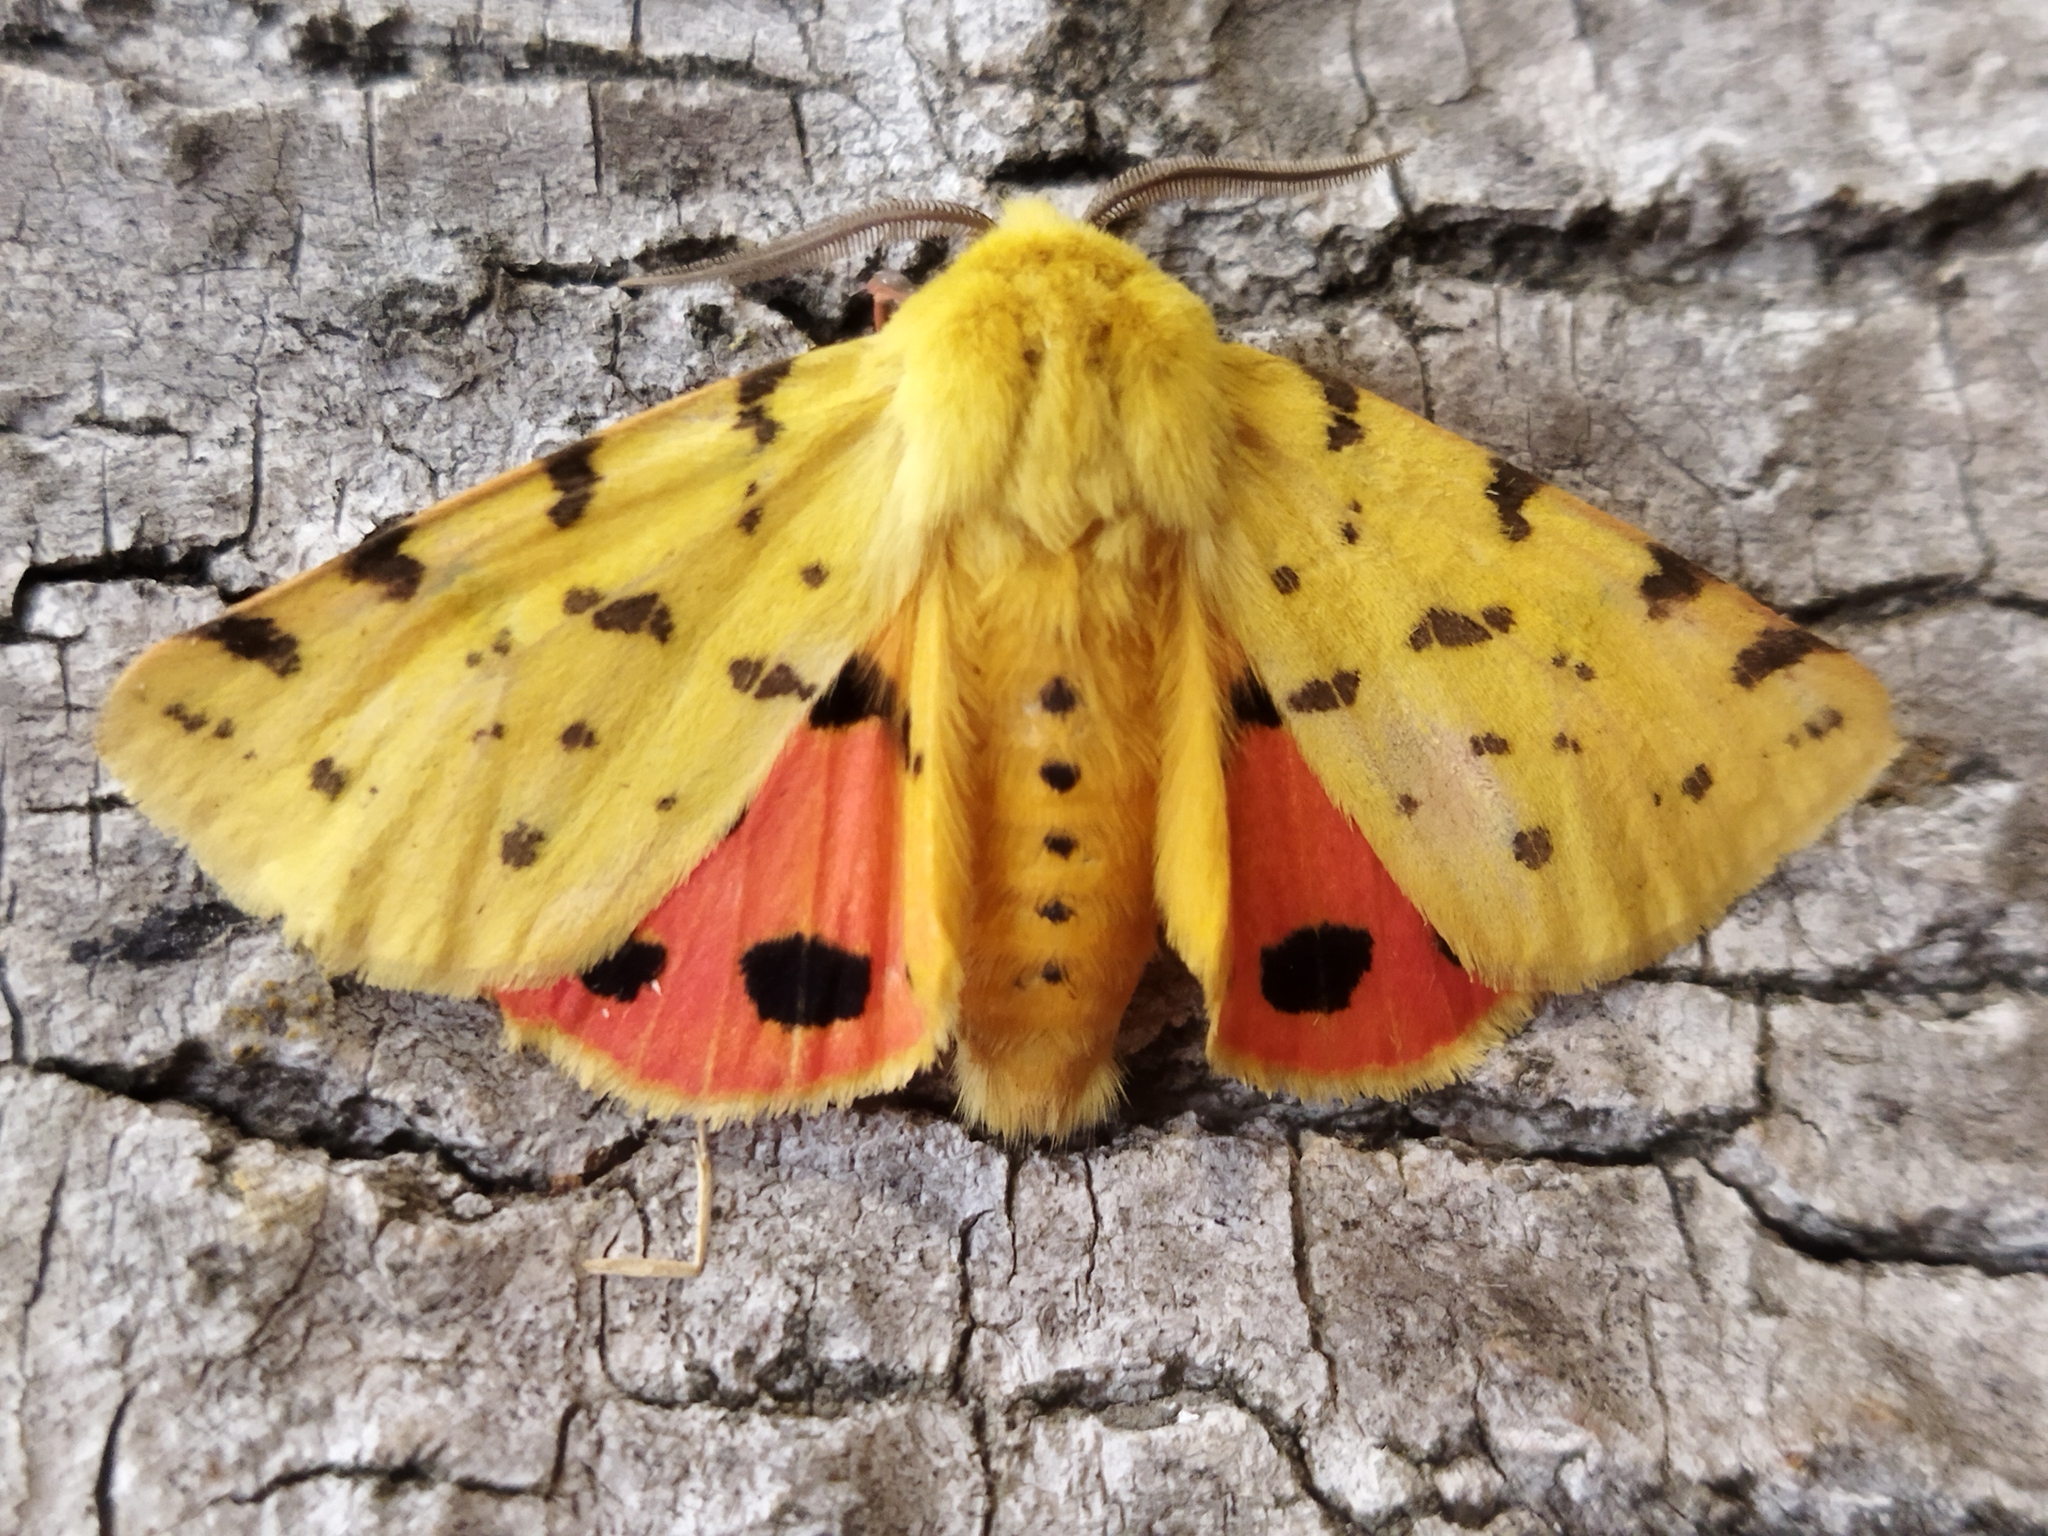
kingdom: Animalia
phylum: Arthropoda
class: Insecta
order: Lepidoptera
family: Erebidae
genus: Rhyparia
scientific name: Rhyparia purpurata
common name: Purple tiger
